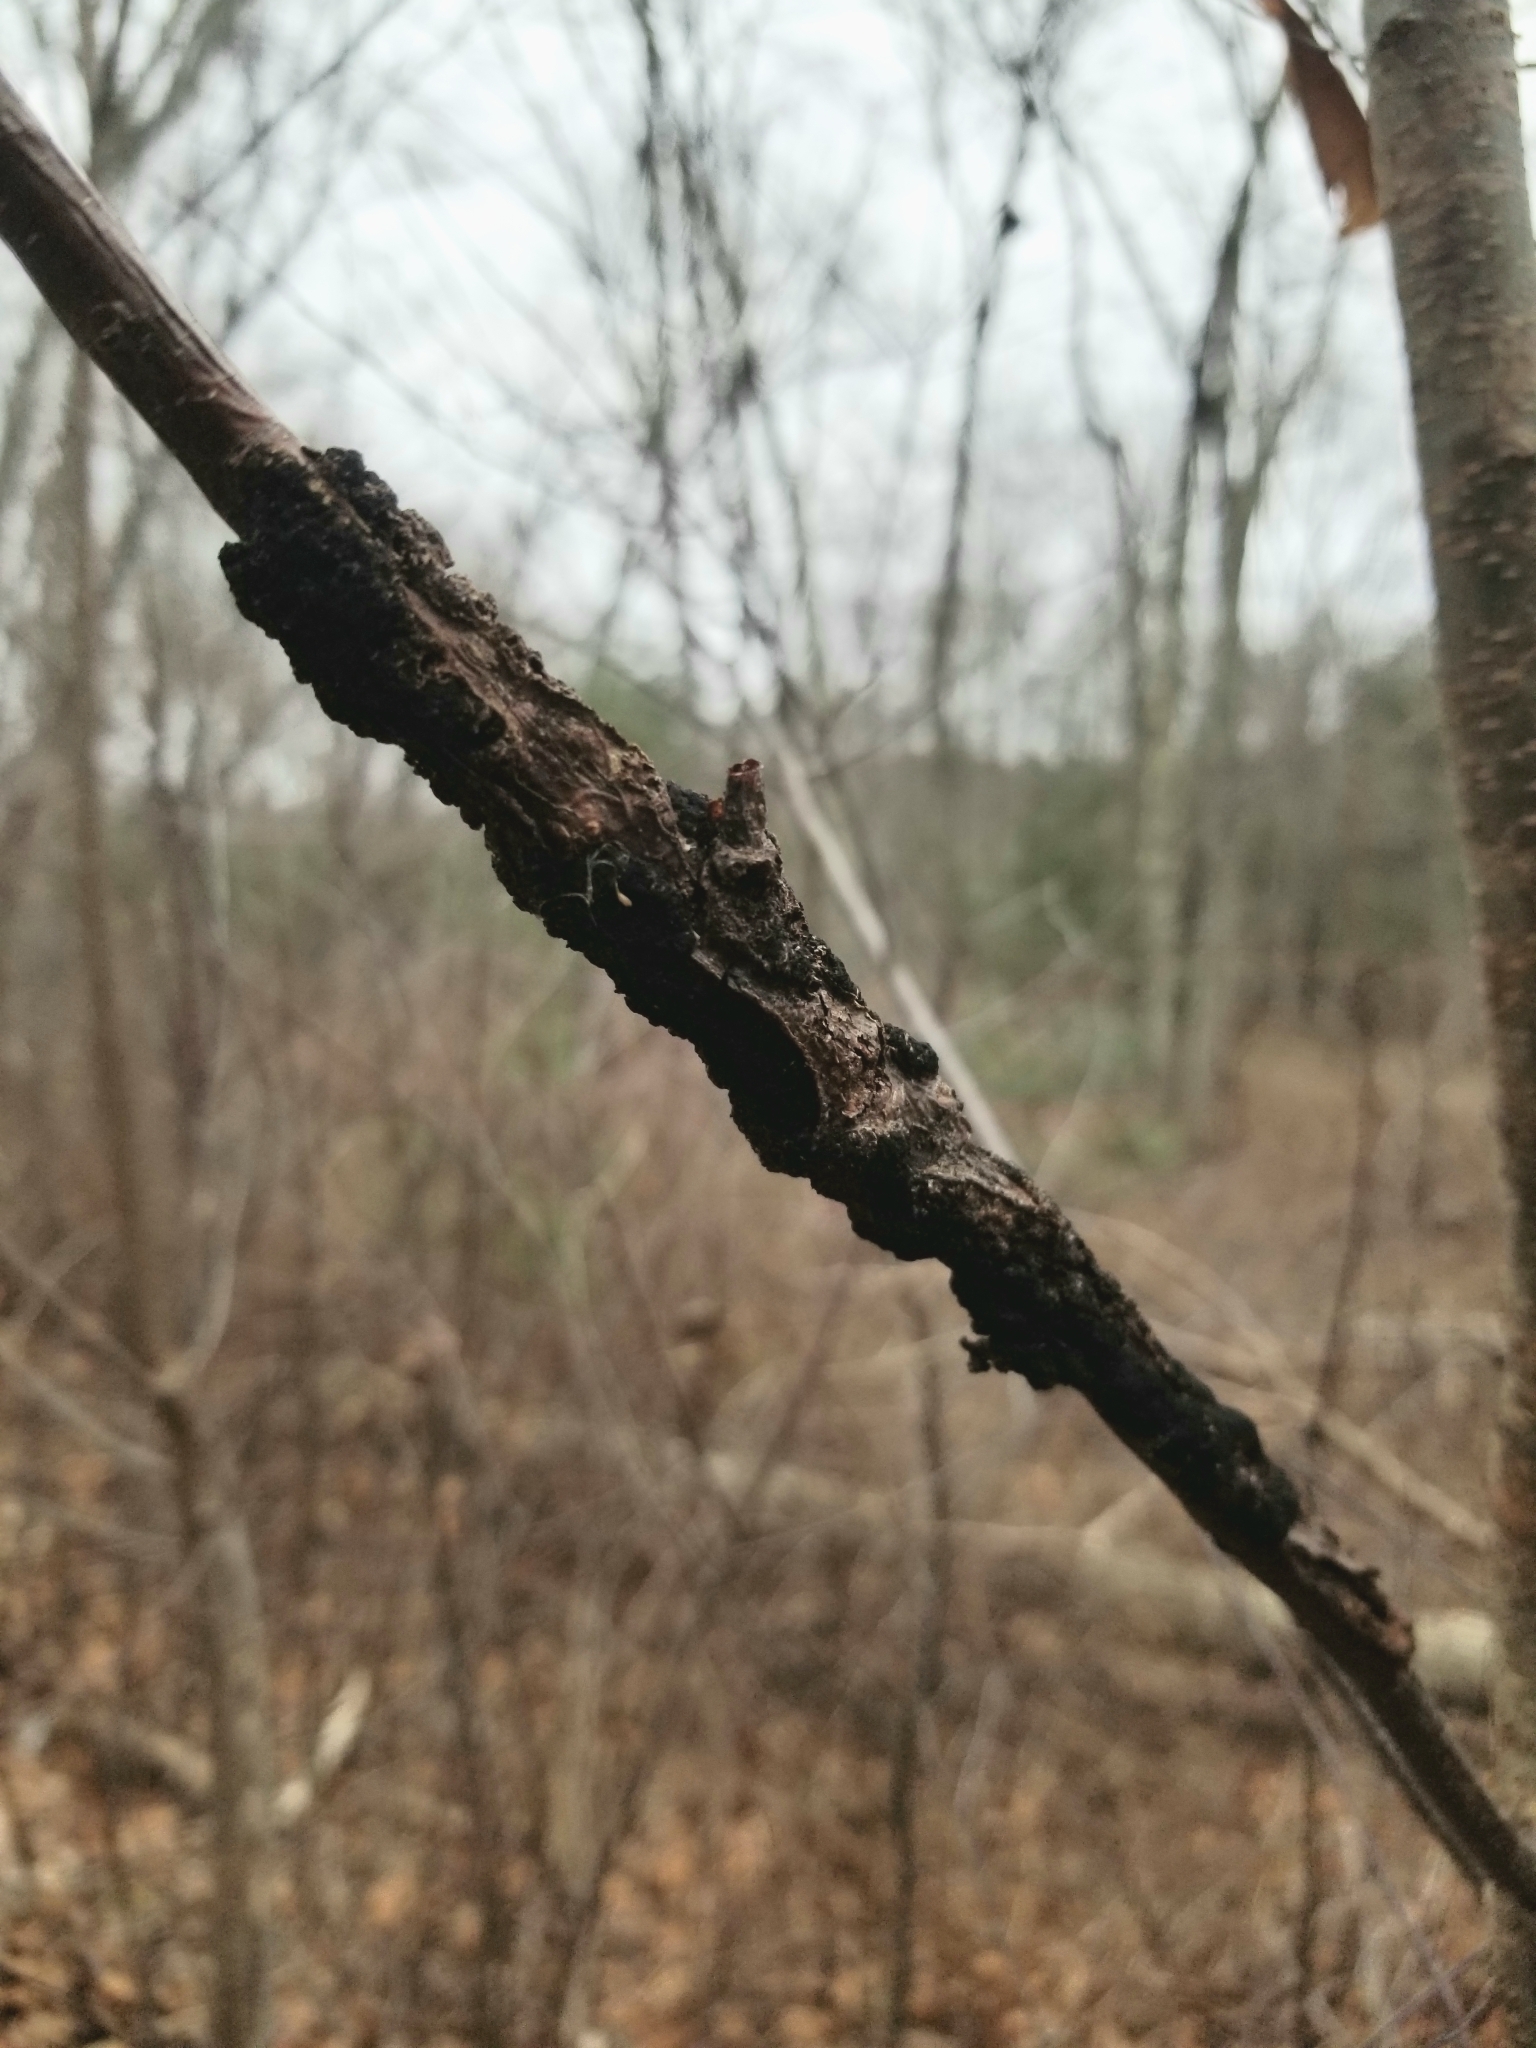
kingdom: Fungi
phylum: Ascomycota
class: Dothideomycetes
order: Venturiales
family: Venturiaceae
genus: Apiosporina
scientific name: Apiosporina morbosa
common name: Black knot
